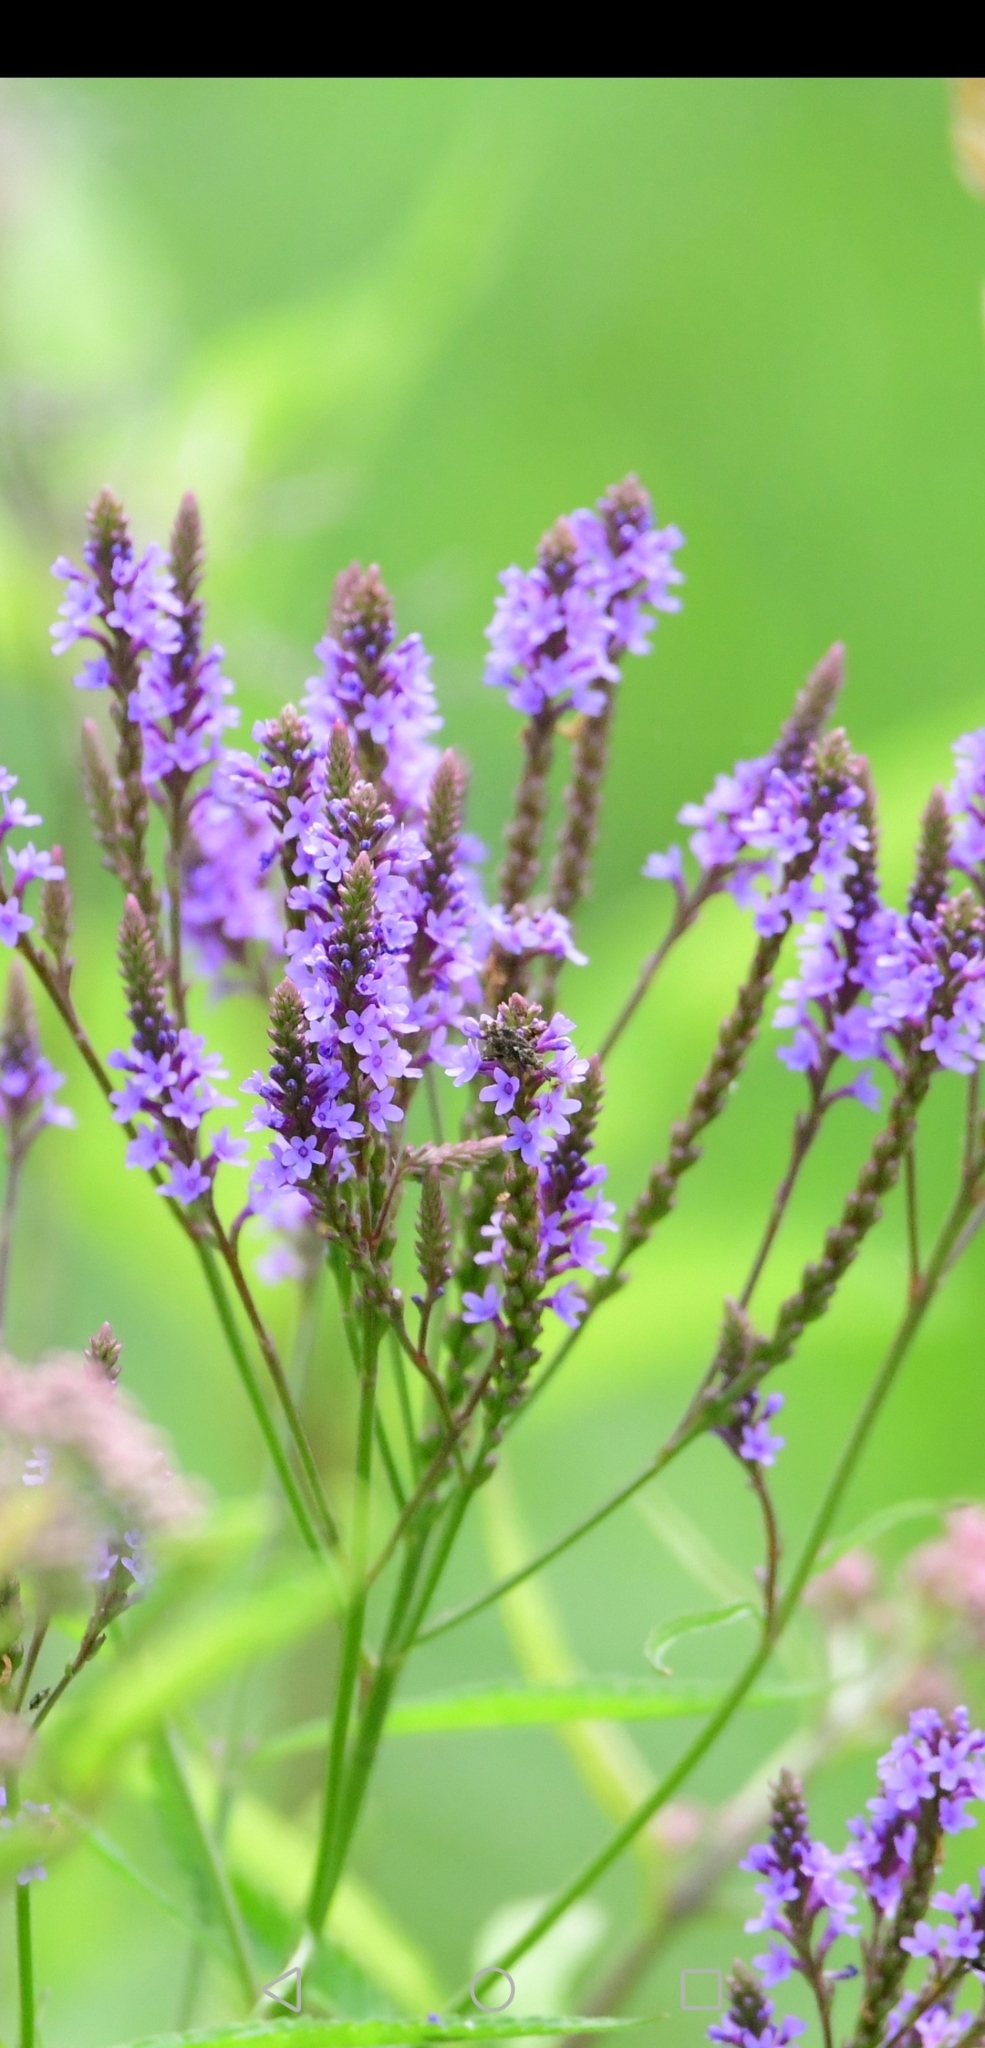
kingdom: Plantae
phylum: Tracheophyta
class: Magnoliopsida
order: Lamiales
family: Verbenaceae
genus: Verbena
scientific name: Verbena hastata
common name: American blue vervain
